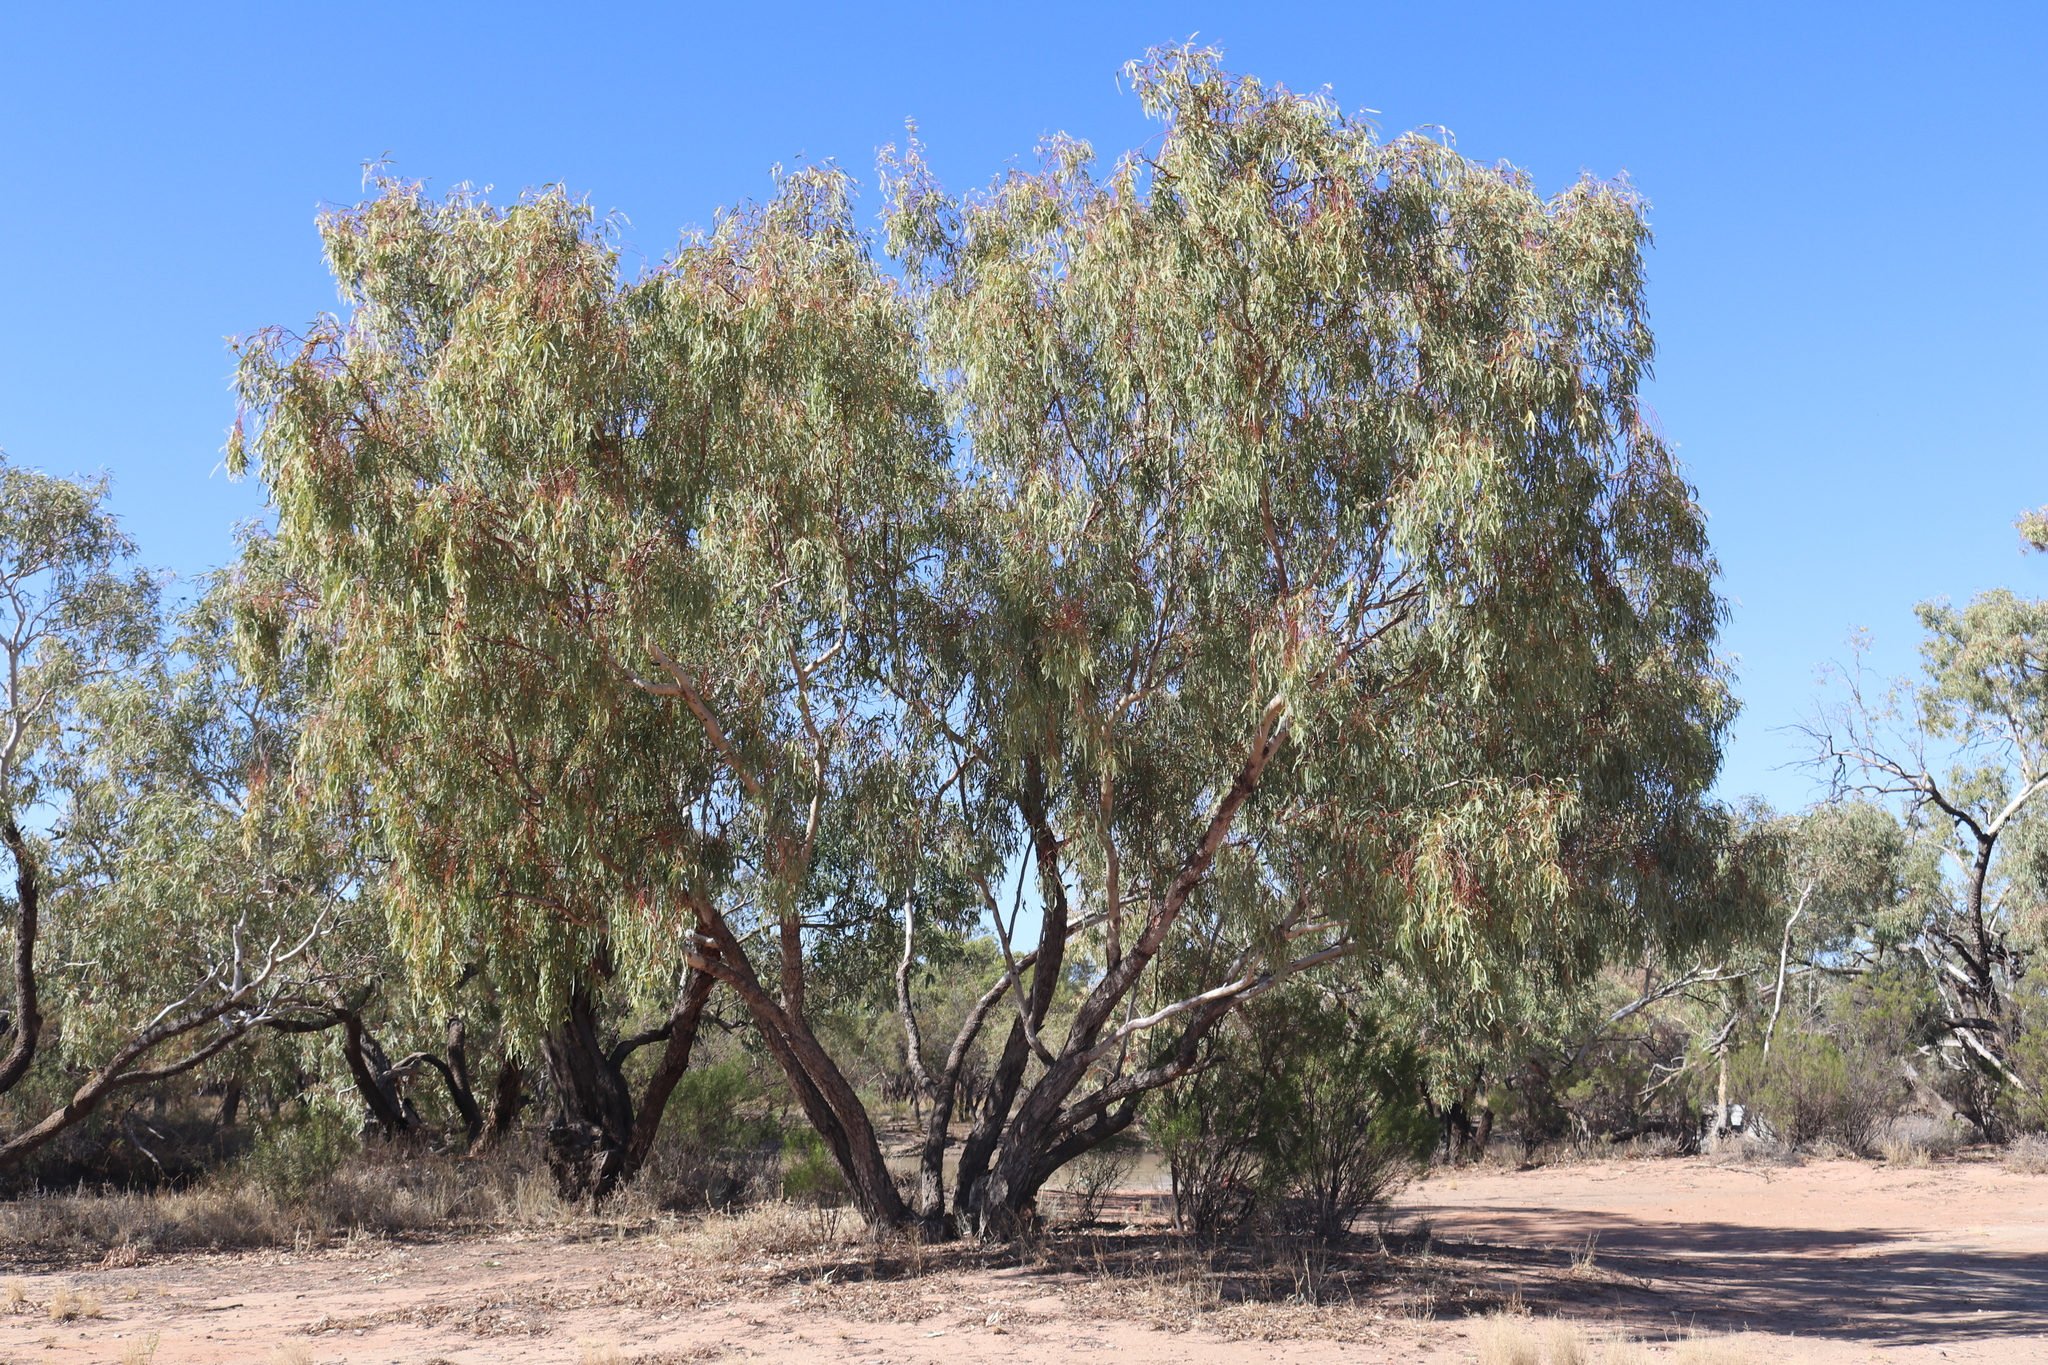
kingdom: Plantae
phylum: Tracheophyta
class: Magnoliopsida
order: Myrtales
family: Myrtaceae
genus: Eucalyptus
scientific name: Eucalyptus coolabah
